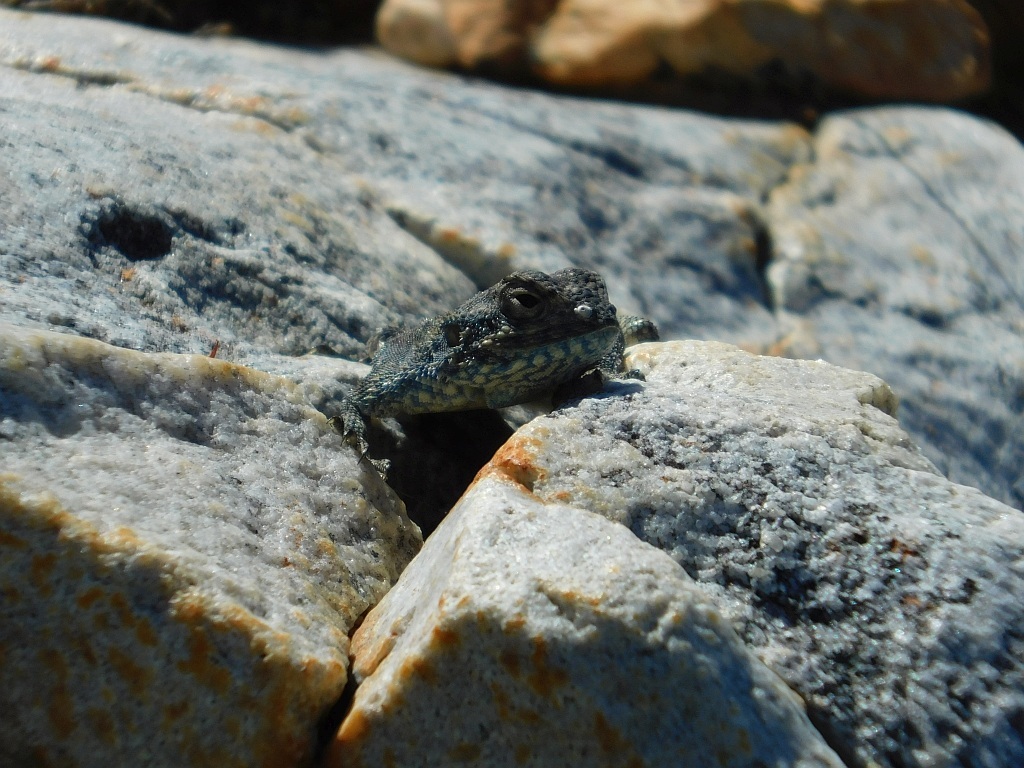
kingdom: Animalia
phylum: Chordata
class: Squamata
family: Agamidae
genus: Agama
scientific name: Agama atra
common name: Southern african rock agama
